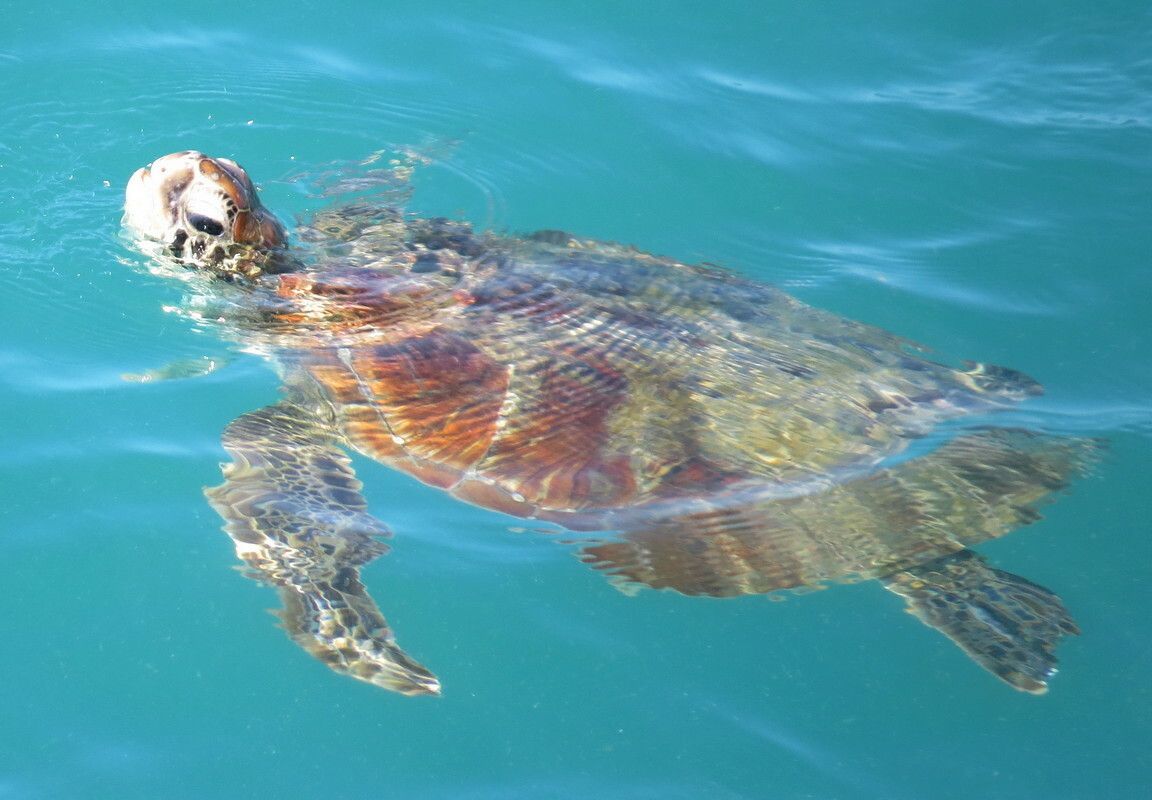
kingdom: Animalia
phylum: Chordata
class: Testudines
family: Cheloniidae
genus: Chelonia
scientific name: Chelonia mydas
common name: Green turtle
